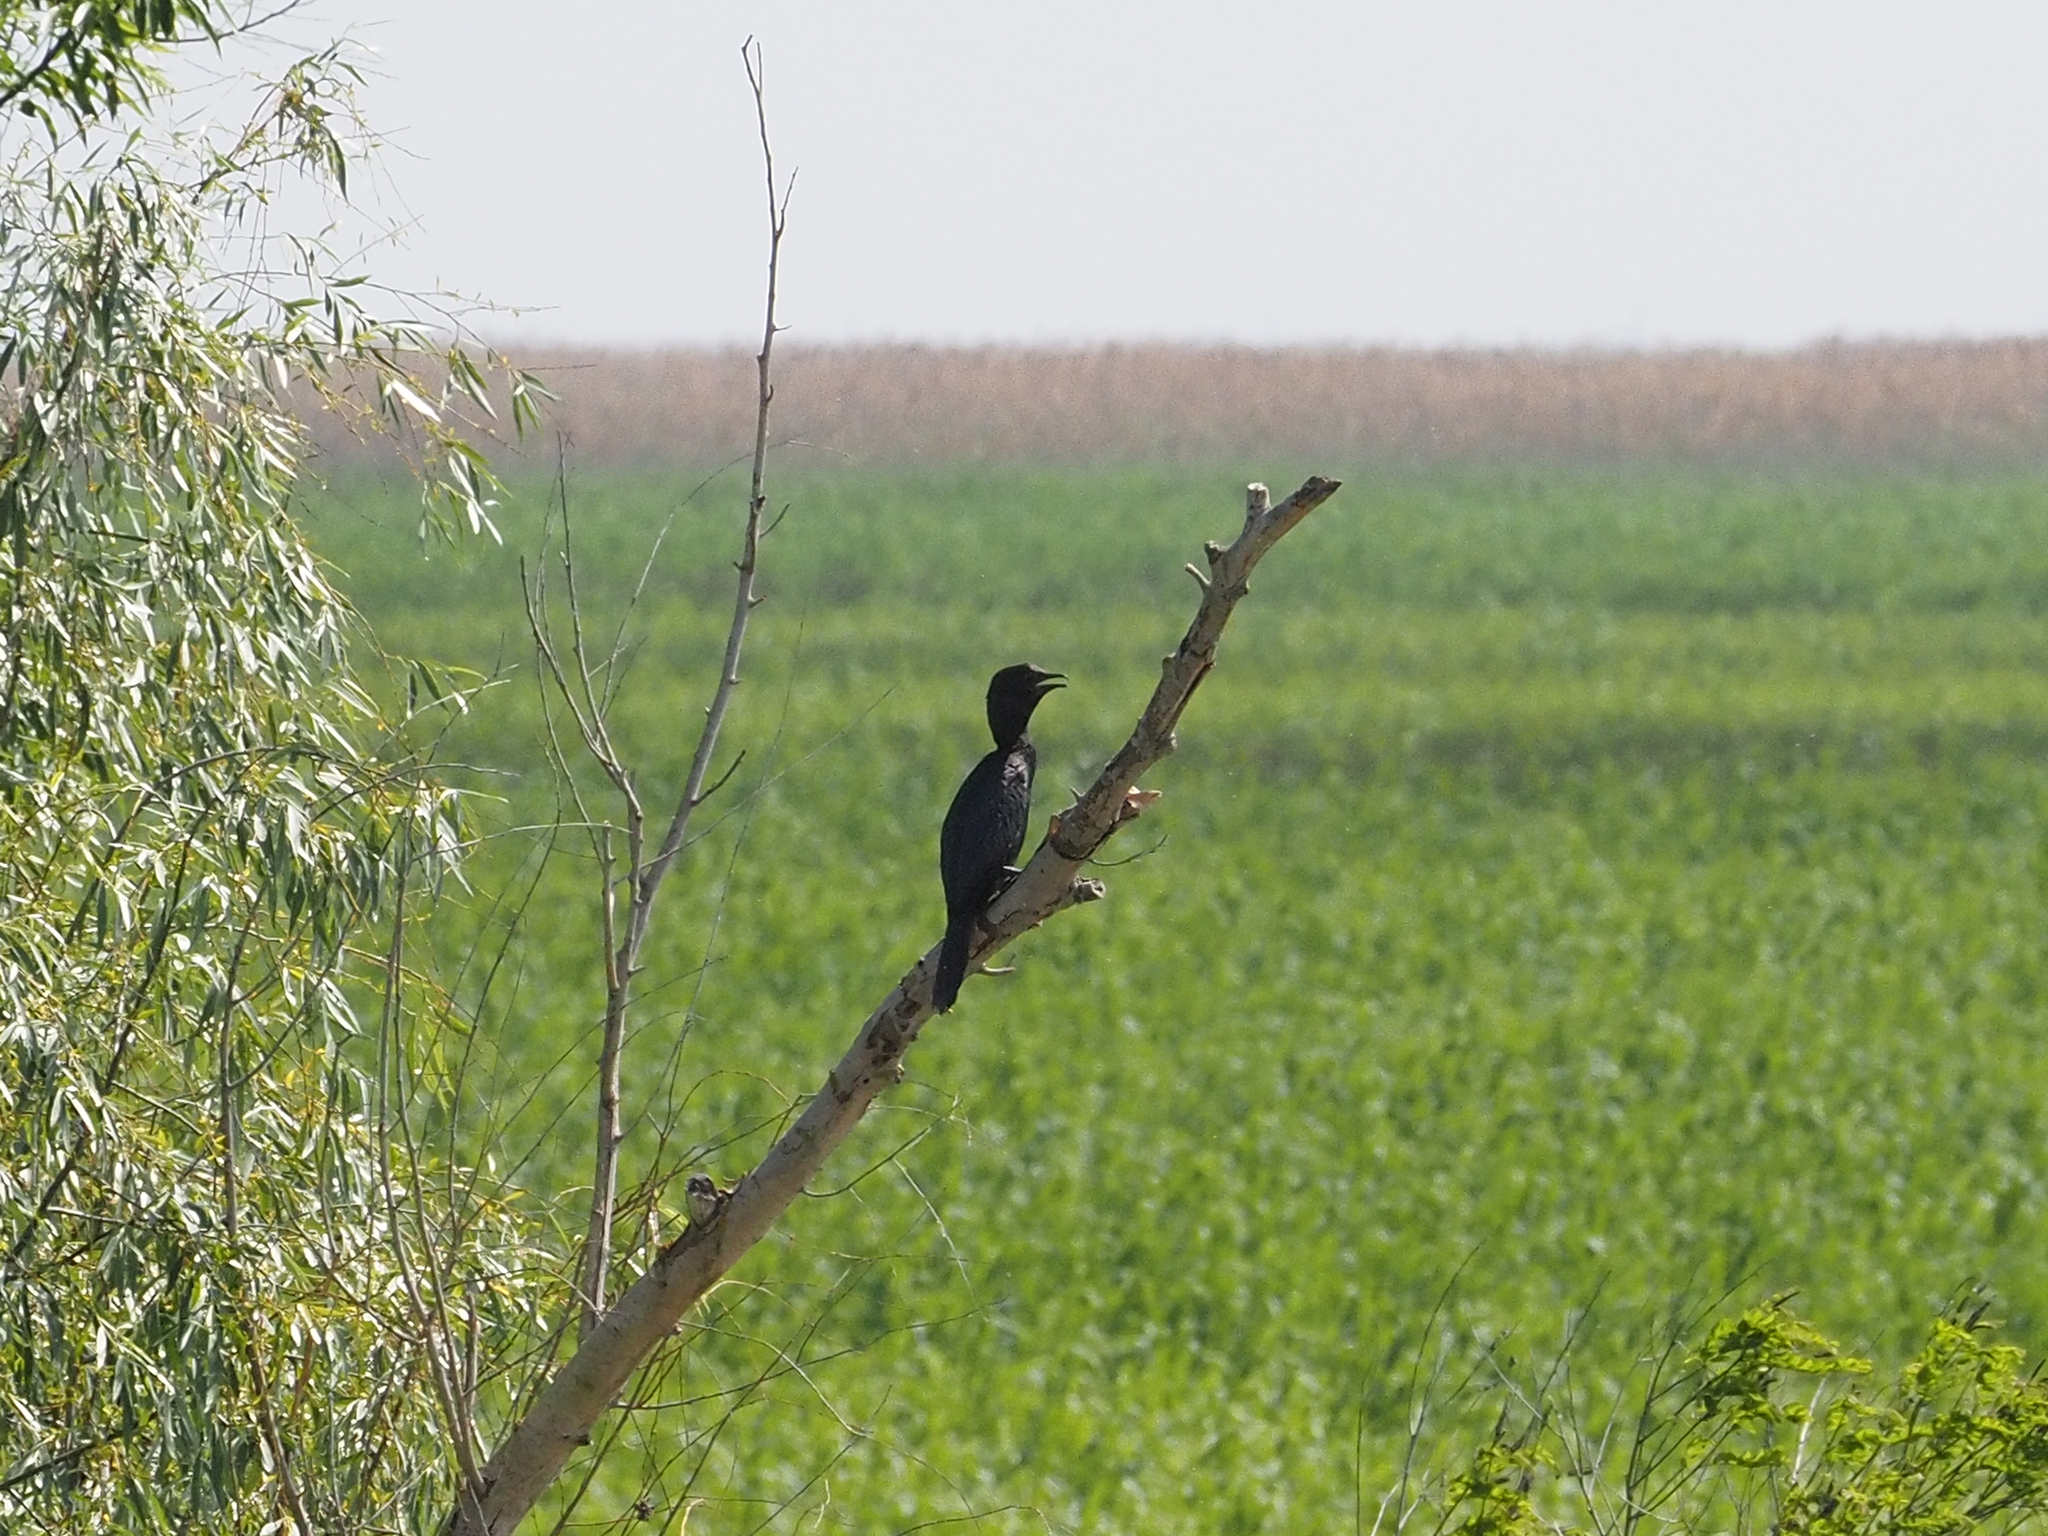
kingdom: Animalia
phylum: Chordata
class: Aves
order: Suliformes
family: Phalacrocoracidae
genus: Microcarbo
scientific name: Microcarbo pygmaeus
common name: Pygmy cormorant
